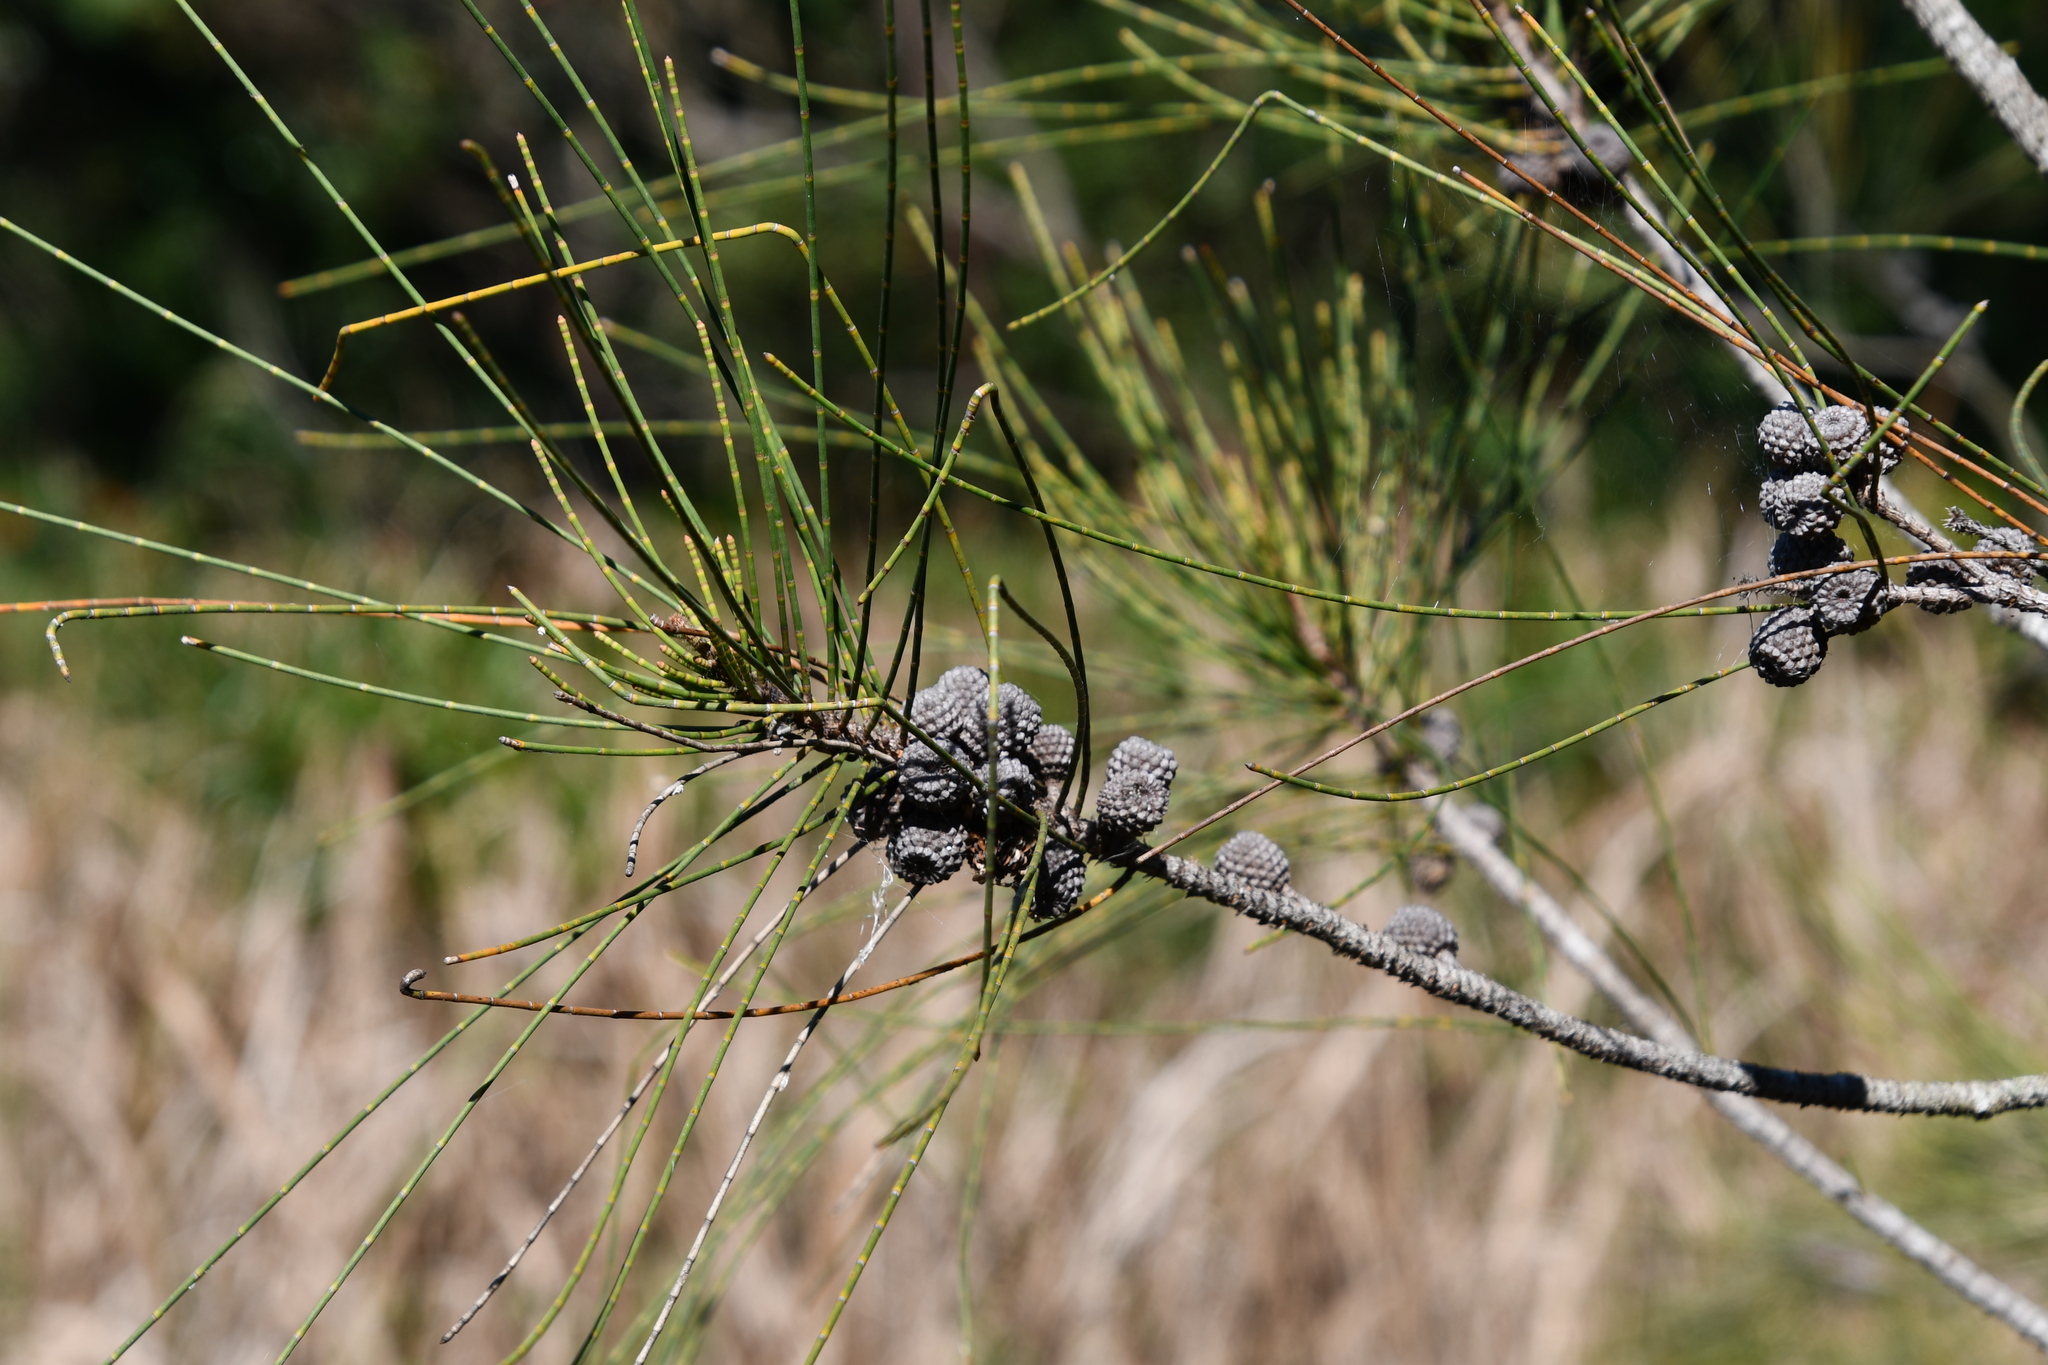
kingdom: Plantae
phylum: Tracheophyta
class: Magnoliopsida
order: Fagales
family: Casuarinaceae
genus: Casuarina
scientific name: Casuarina glauca
